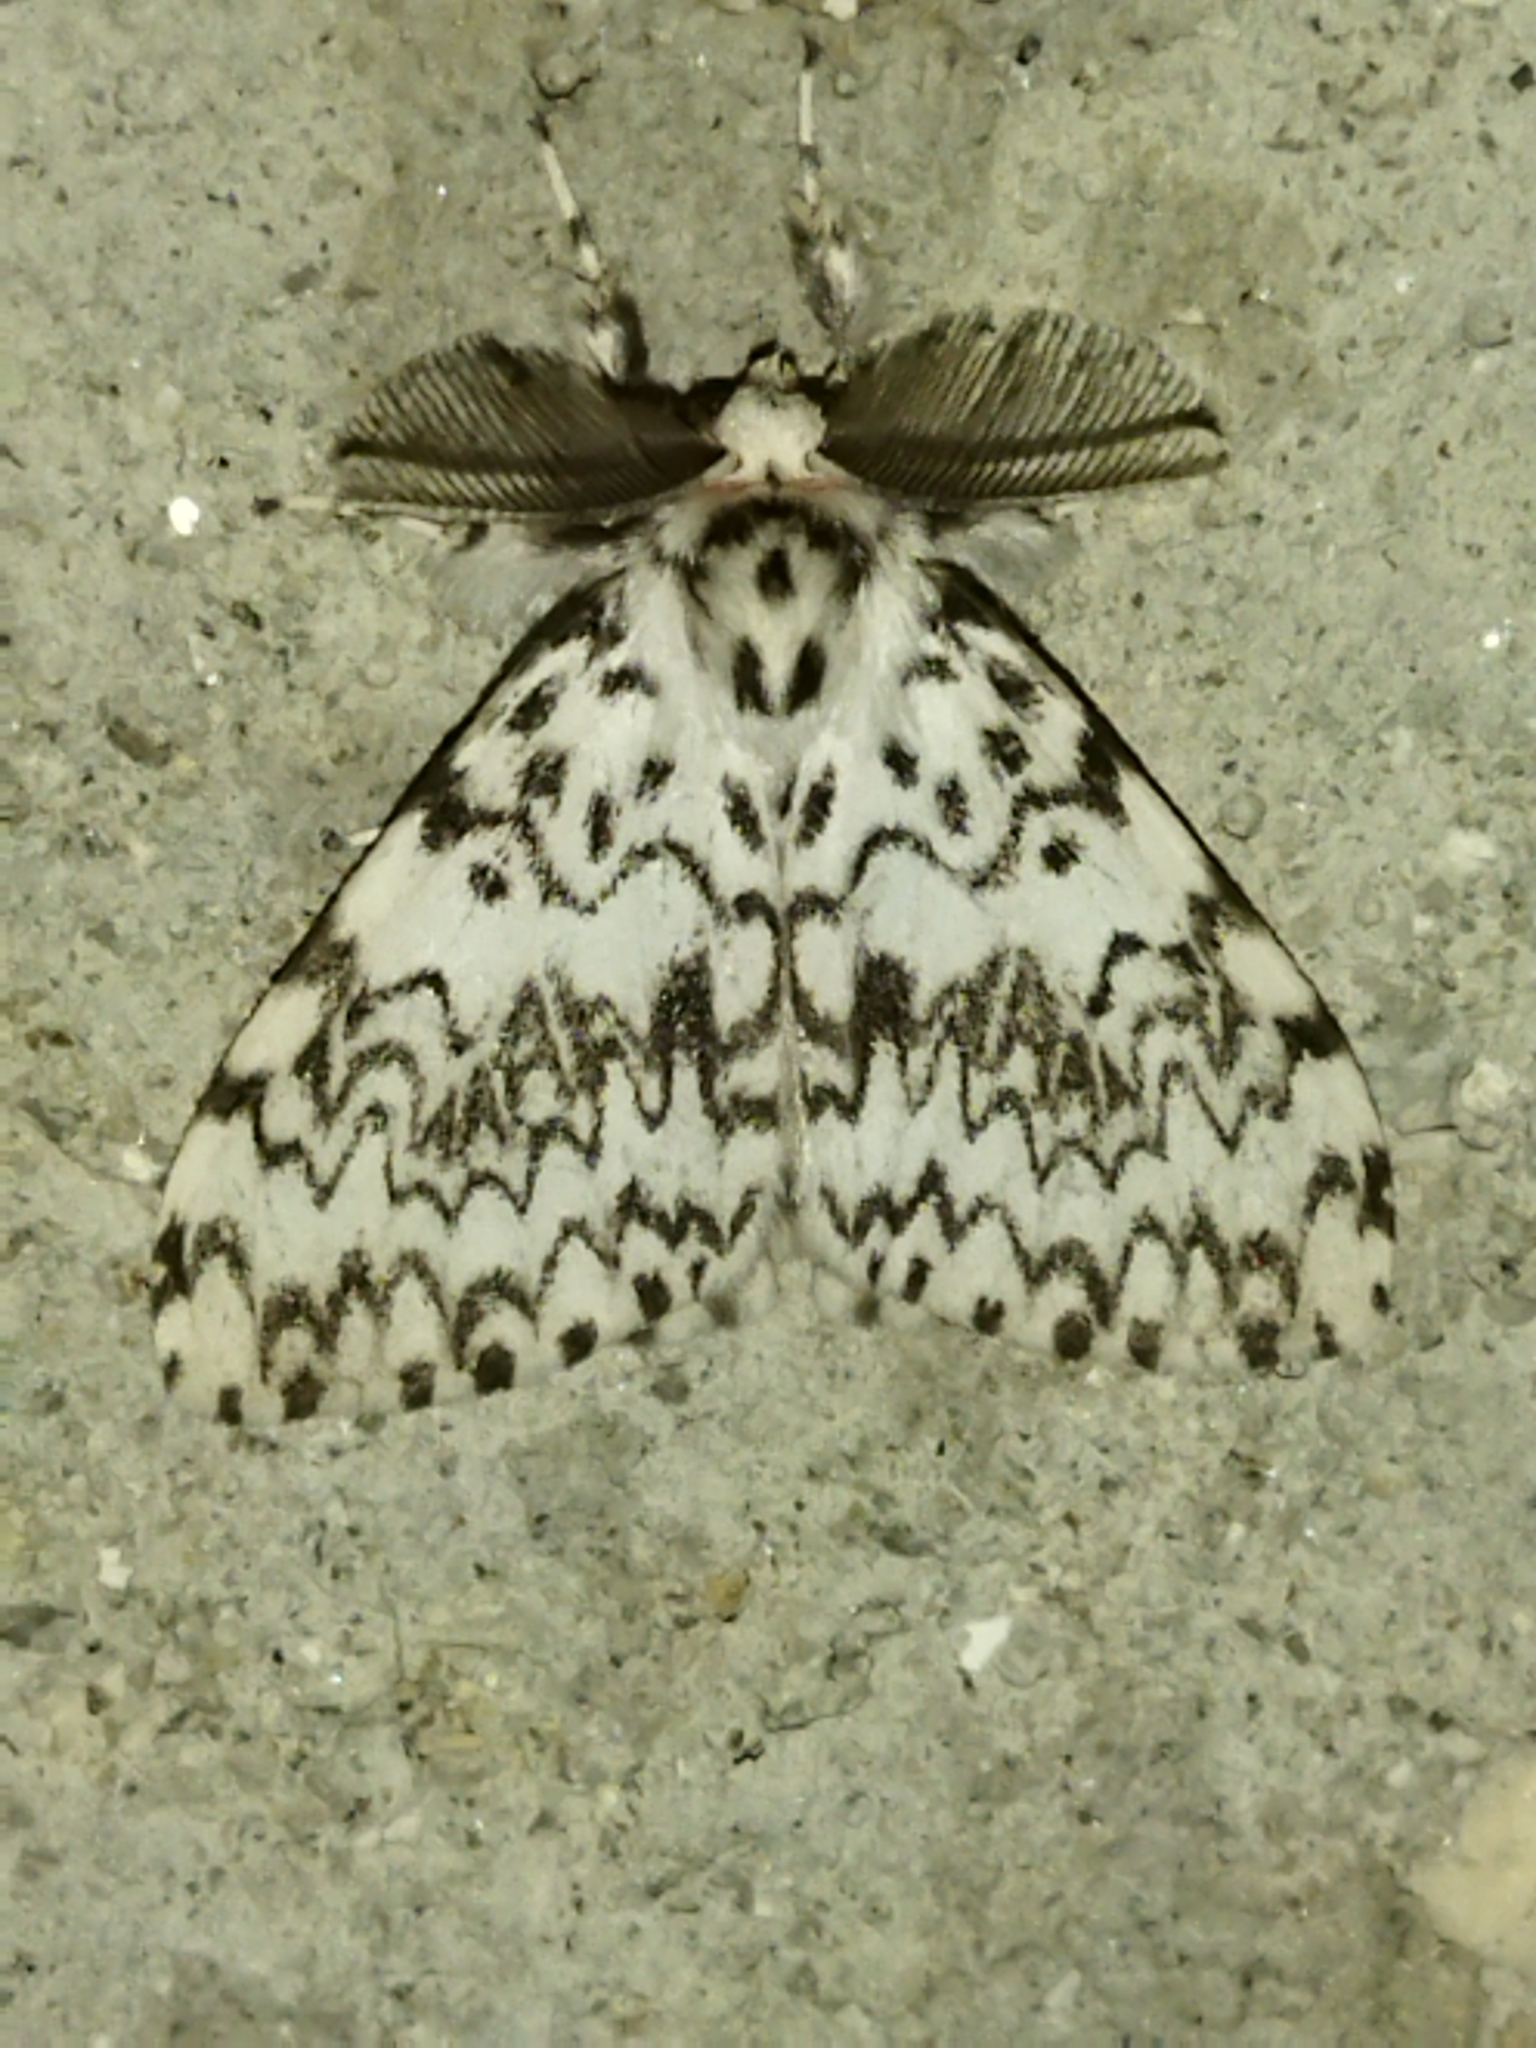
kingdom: Animalia
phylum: Arthropoda
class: Insecta
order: Lepidoptera
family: Erebidae
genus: Lymantria
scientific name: Lymantria monacha
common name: Black arches
